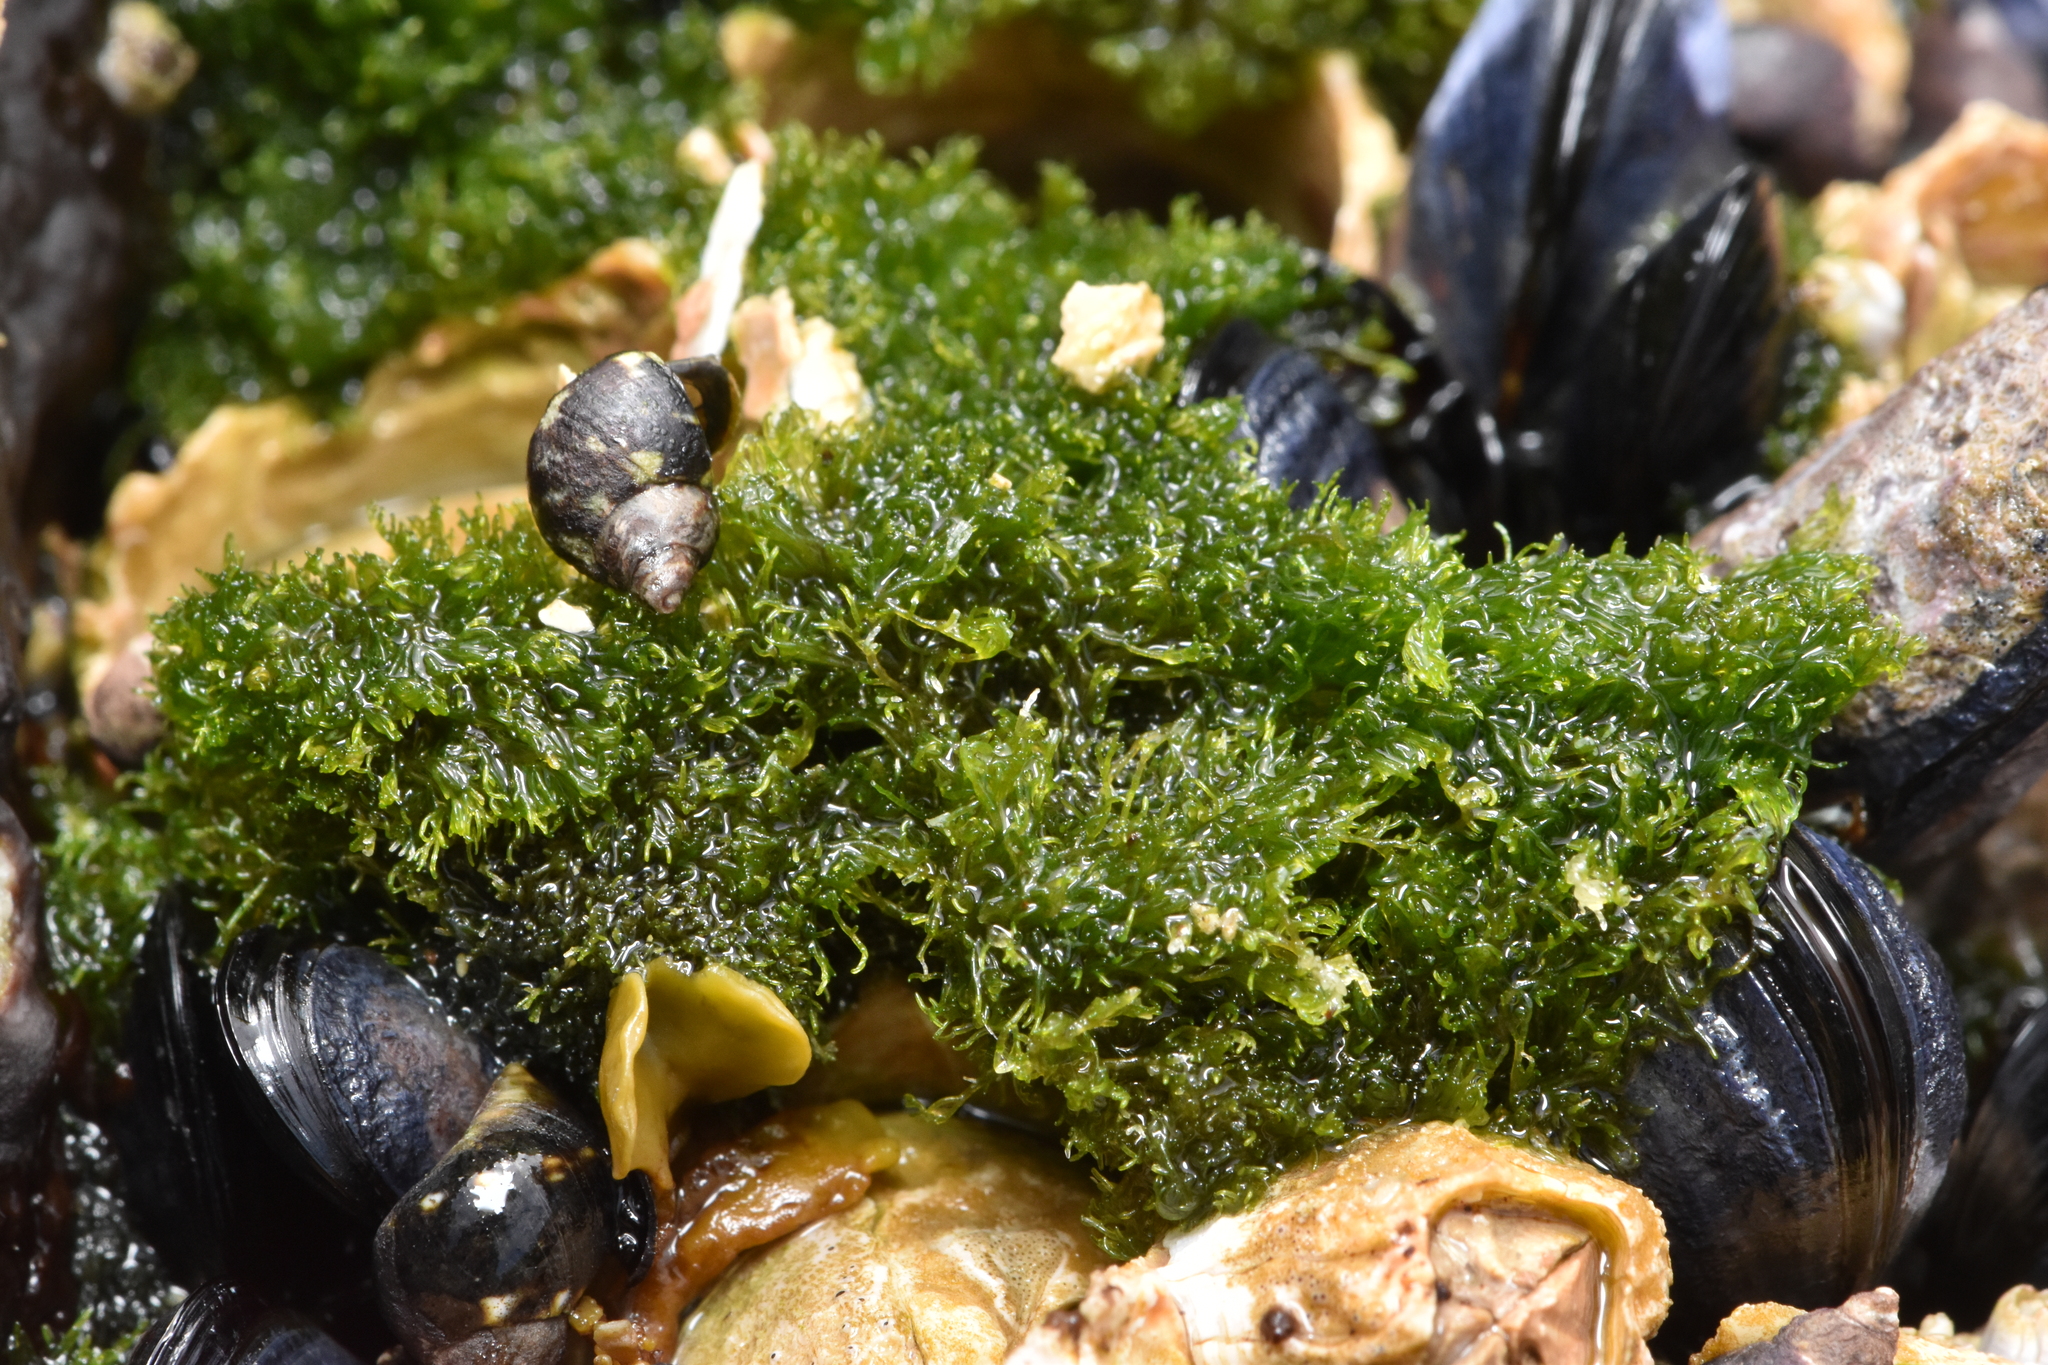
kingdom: Plantae
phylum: Chlorophyta
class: Ulvophyceae
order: Cladophorales
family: Cladophoraceae
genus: Cladophora
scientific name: Cladophora columbiana
